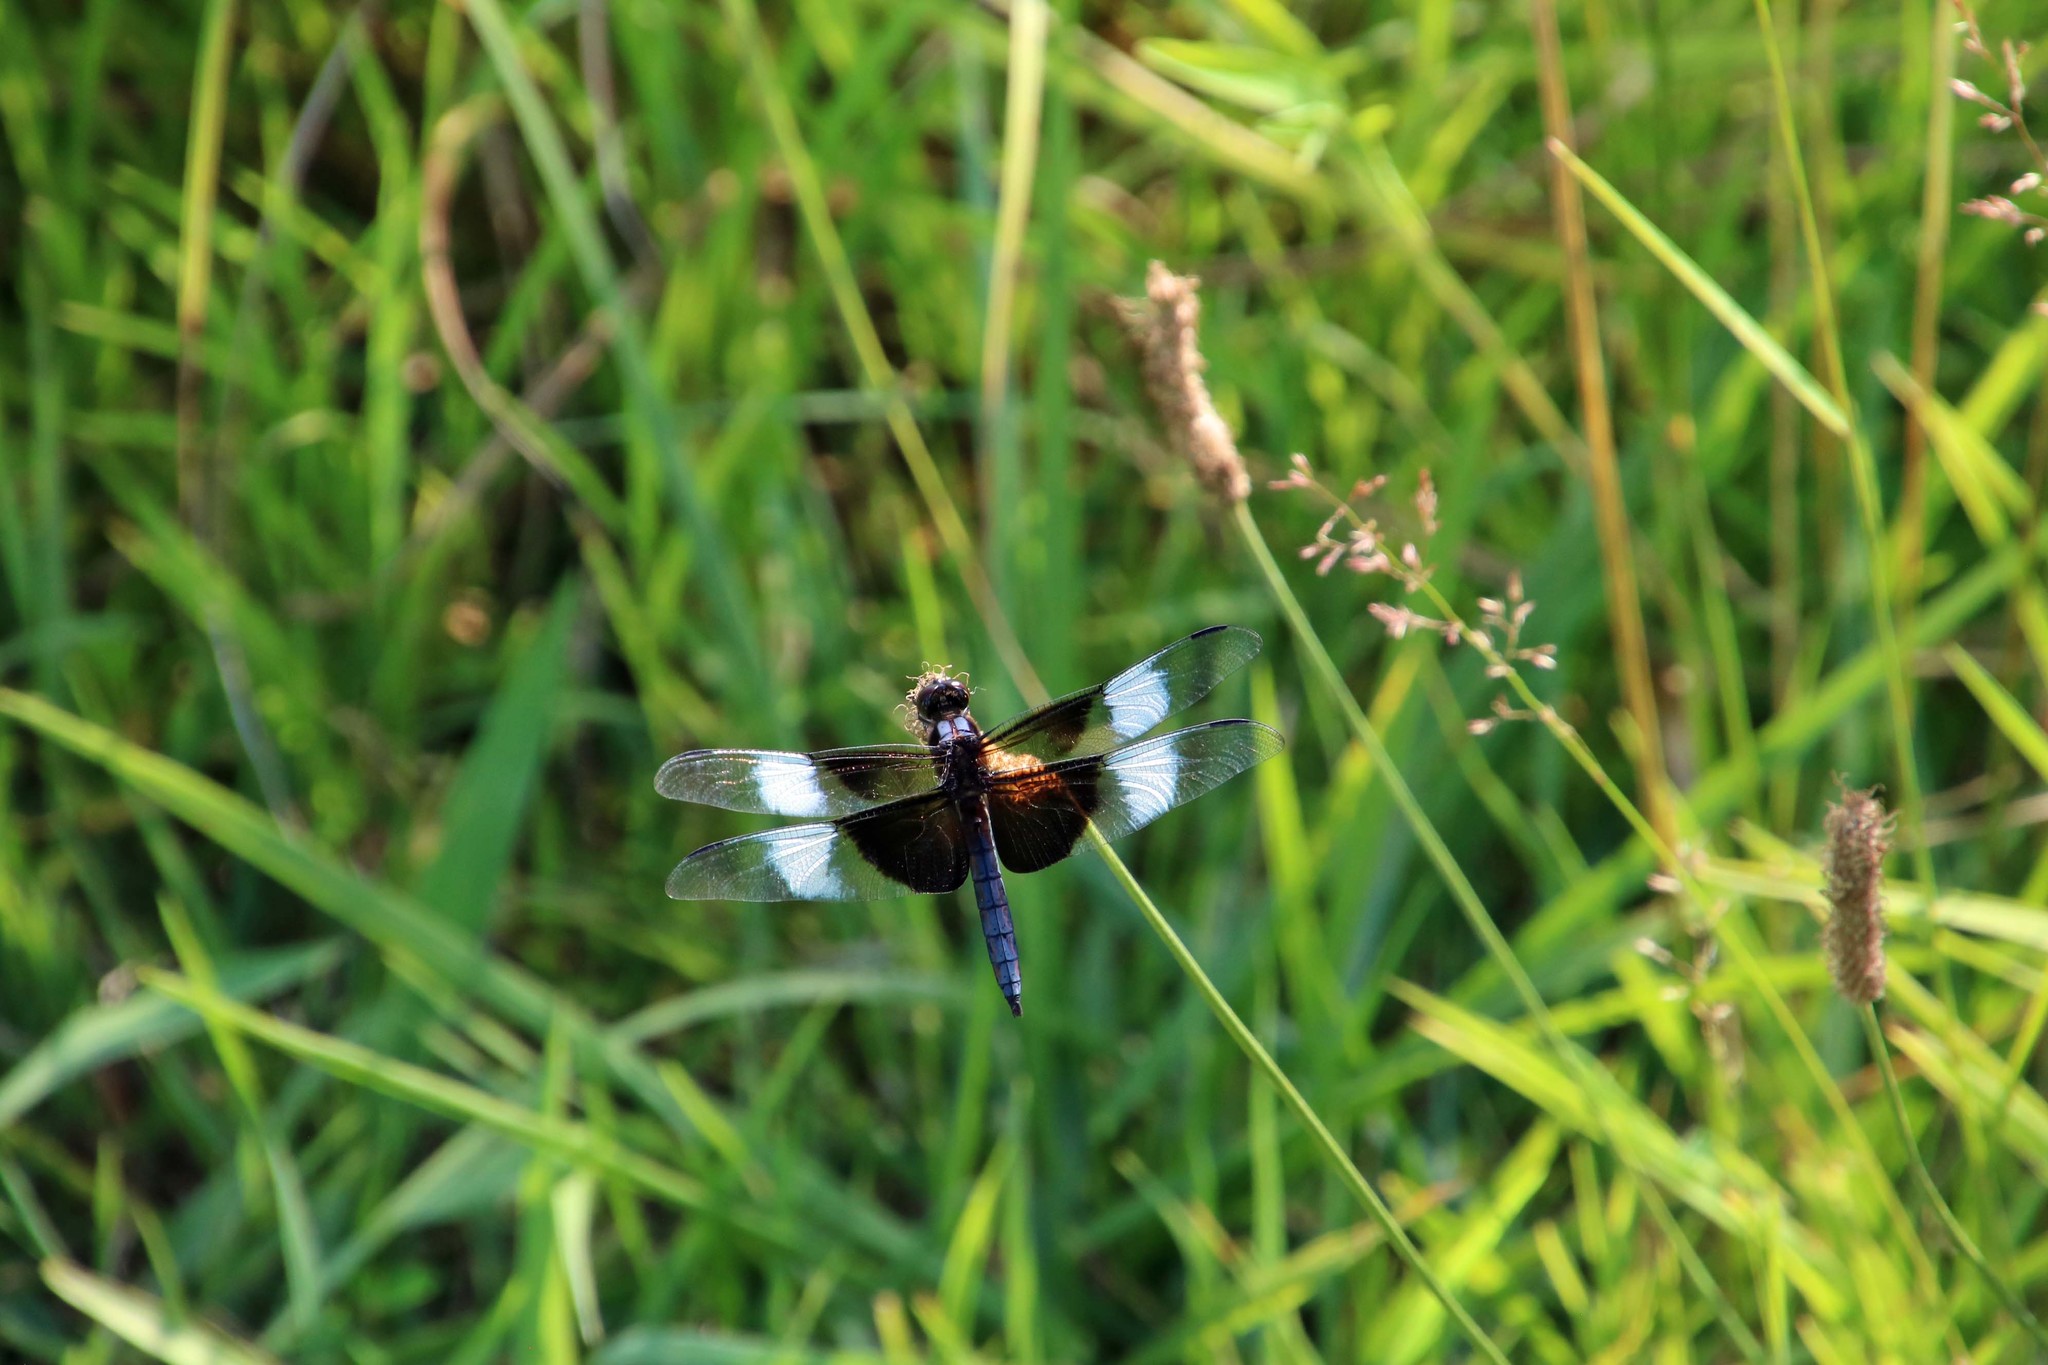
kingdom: Animalia
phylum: Arthropoda
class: Insecta
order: Odonata
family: Libellulidae
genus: Libellula
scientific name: Libellula luctuosa
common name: Widow skimmer
